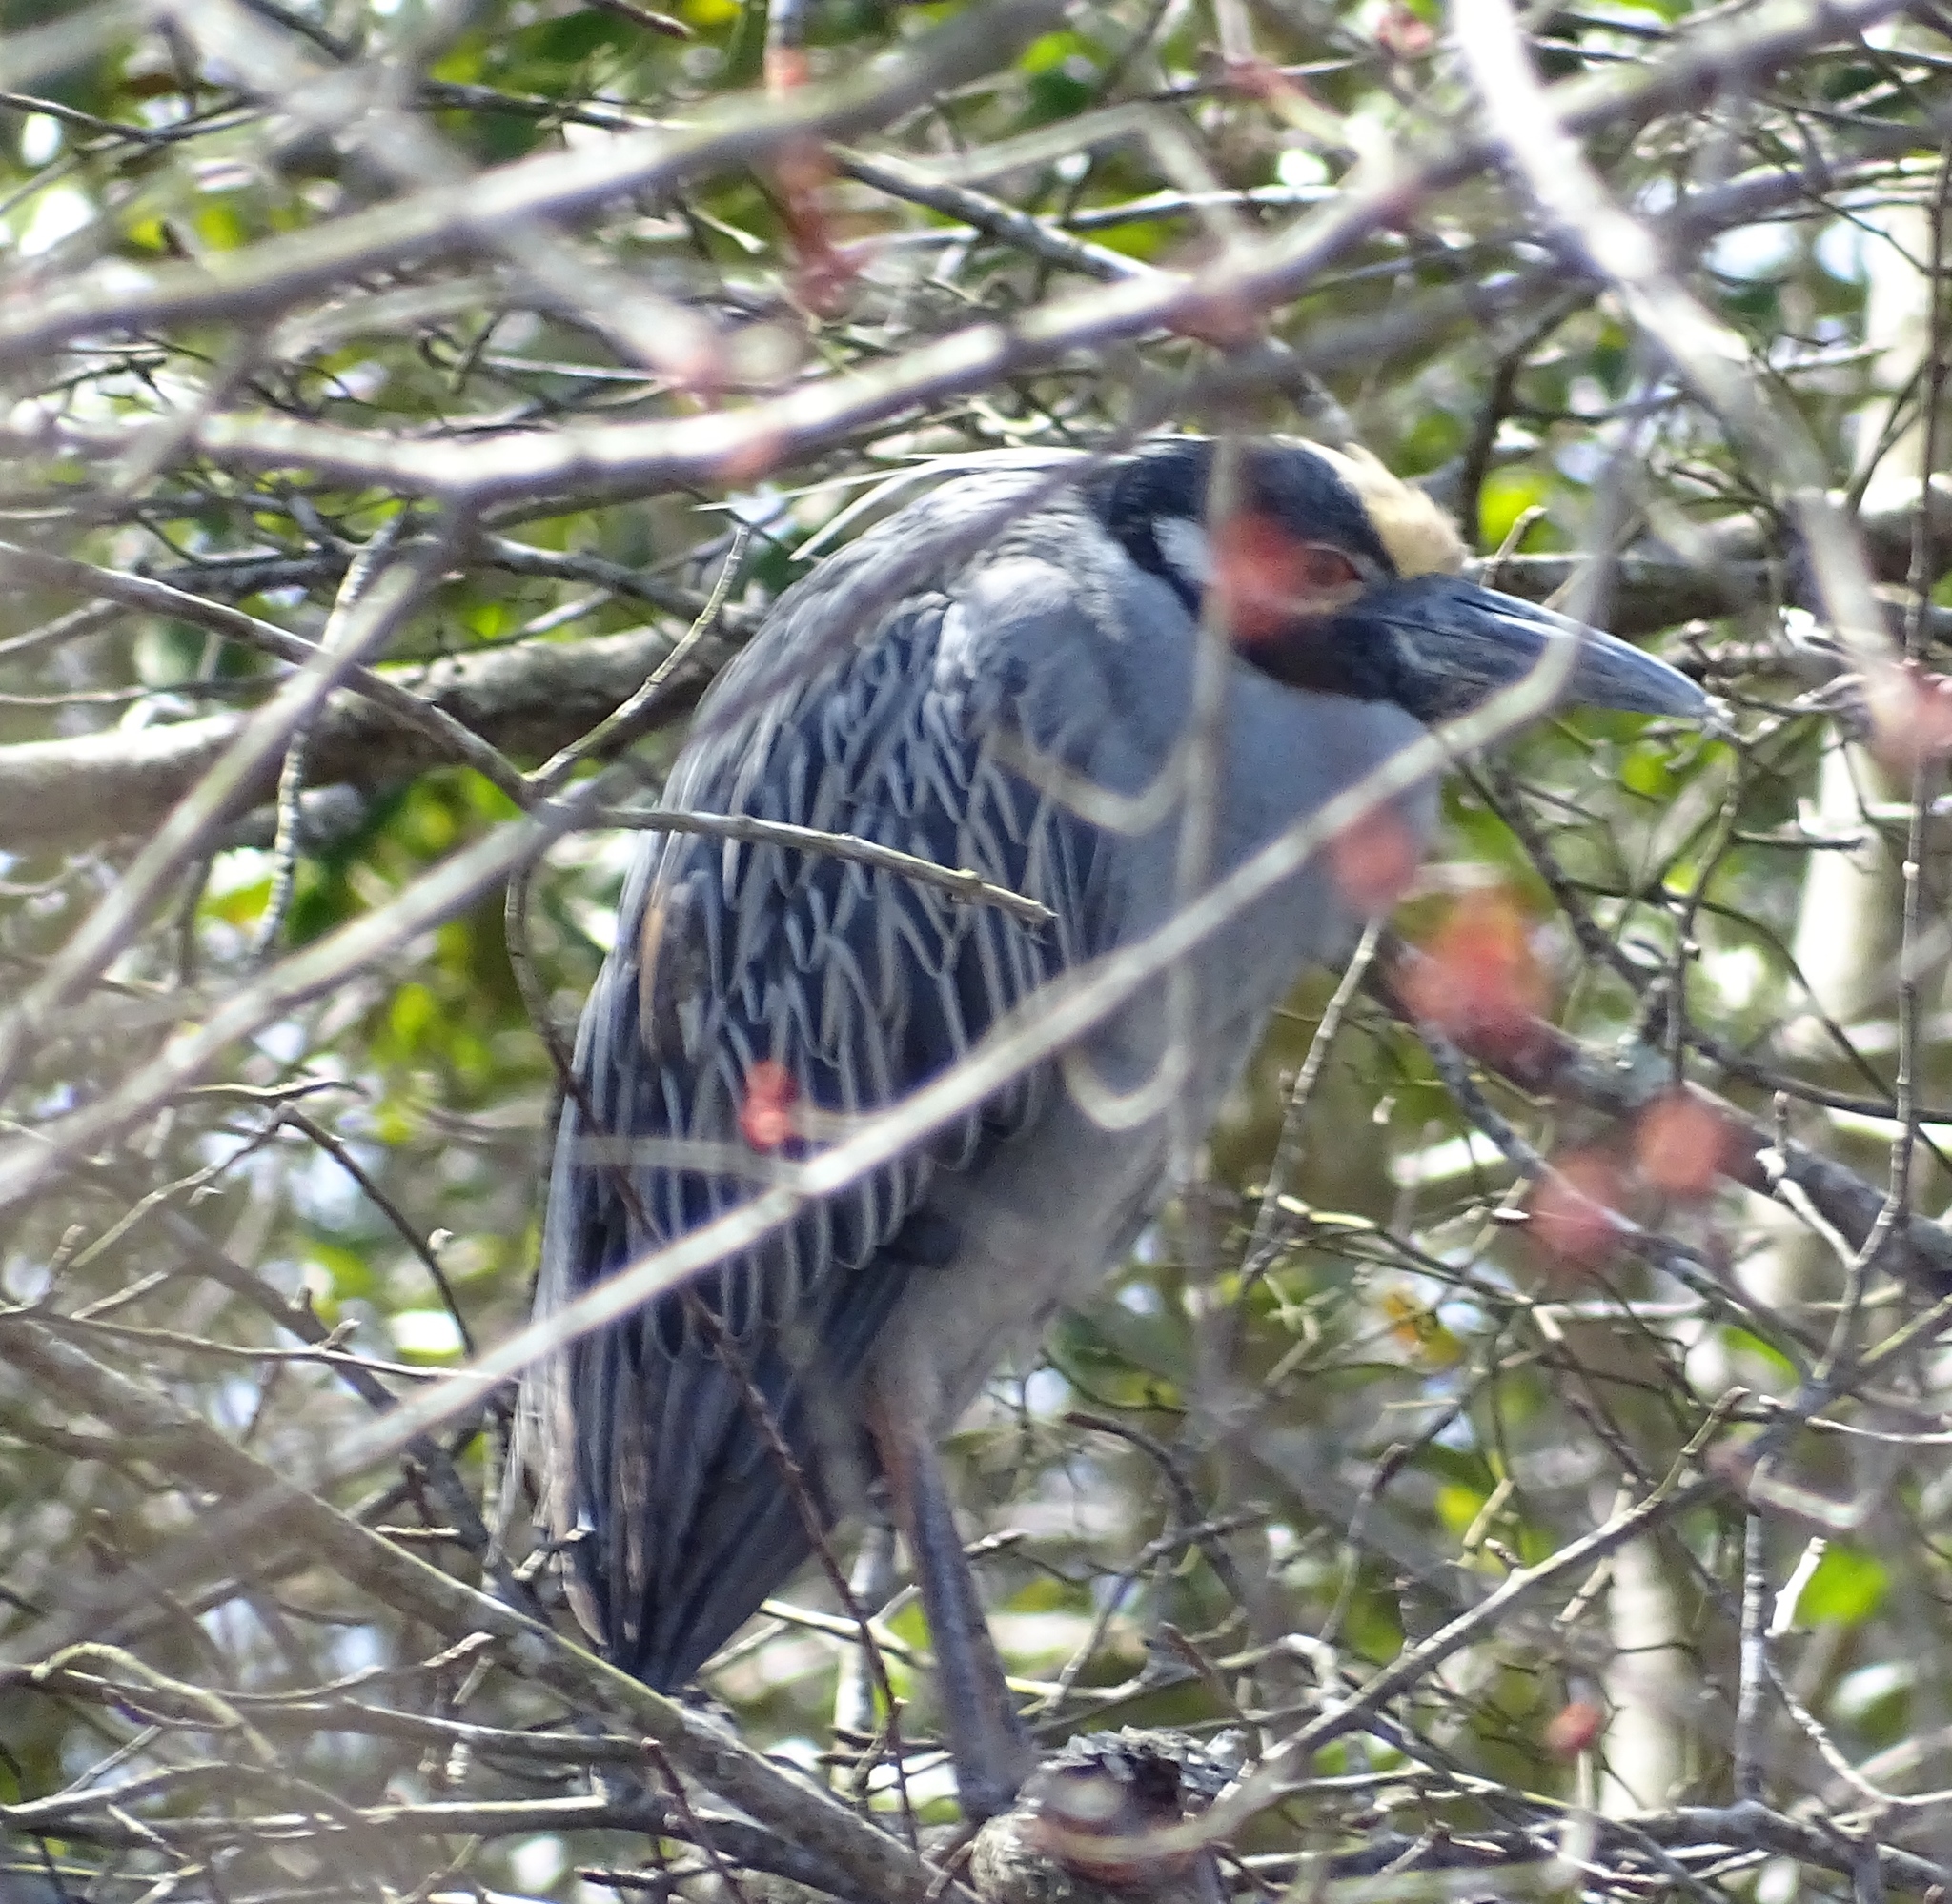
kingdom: Animalia
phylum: Chordata
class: Aves
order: Pelecaniformes
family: Ardeidae
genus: Nyctanassa
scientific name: Nyctanassa violacea
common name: Yellow-crowned night heron
